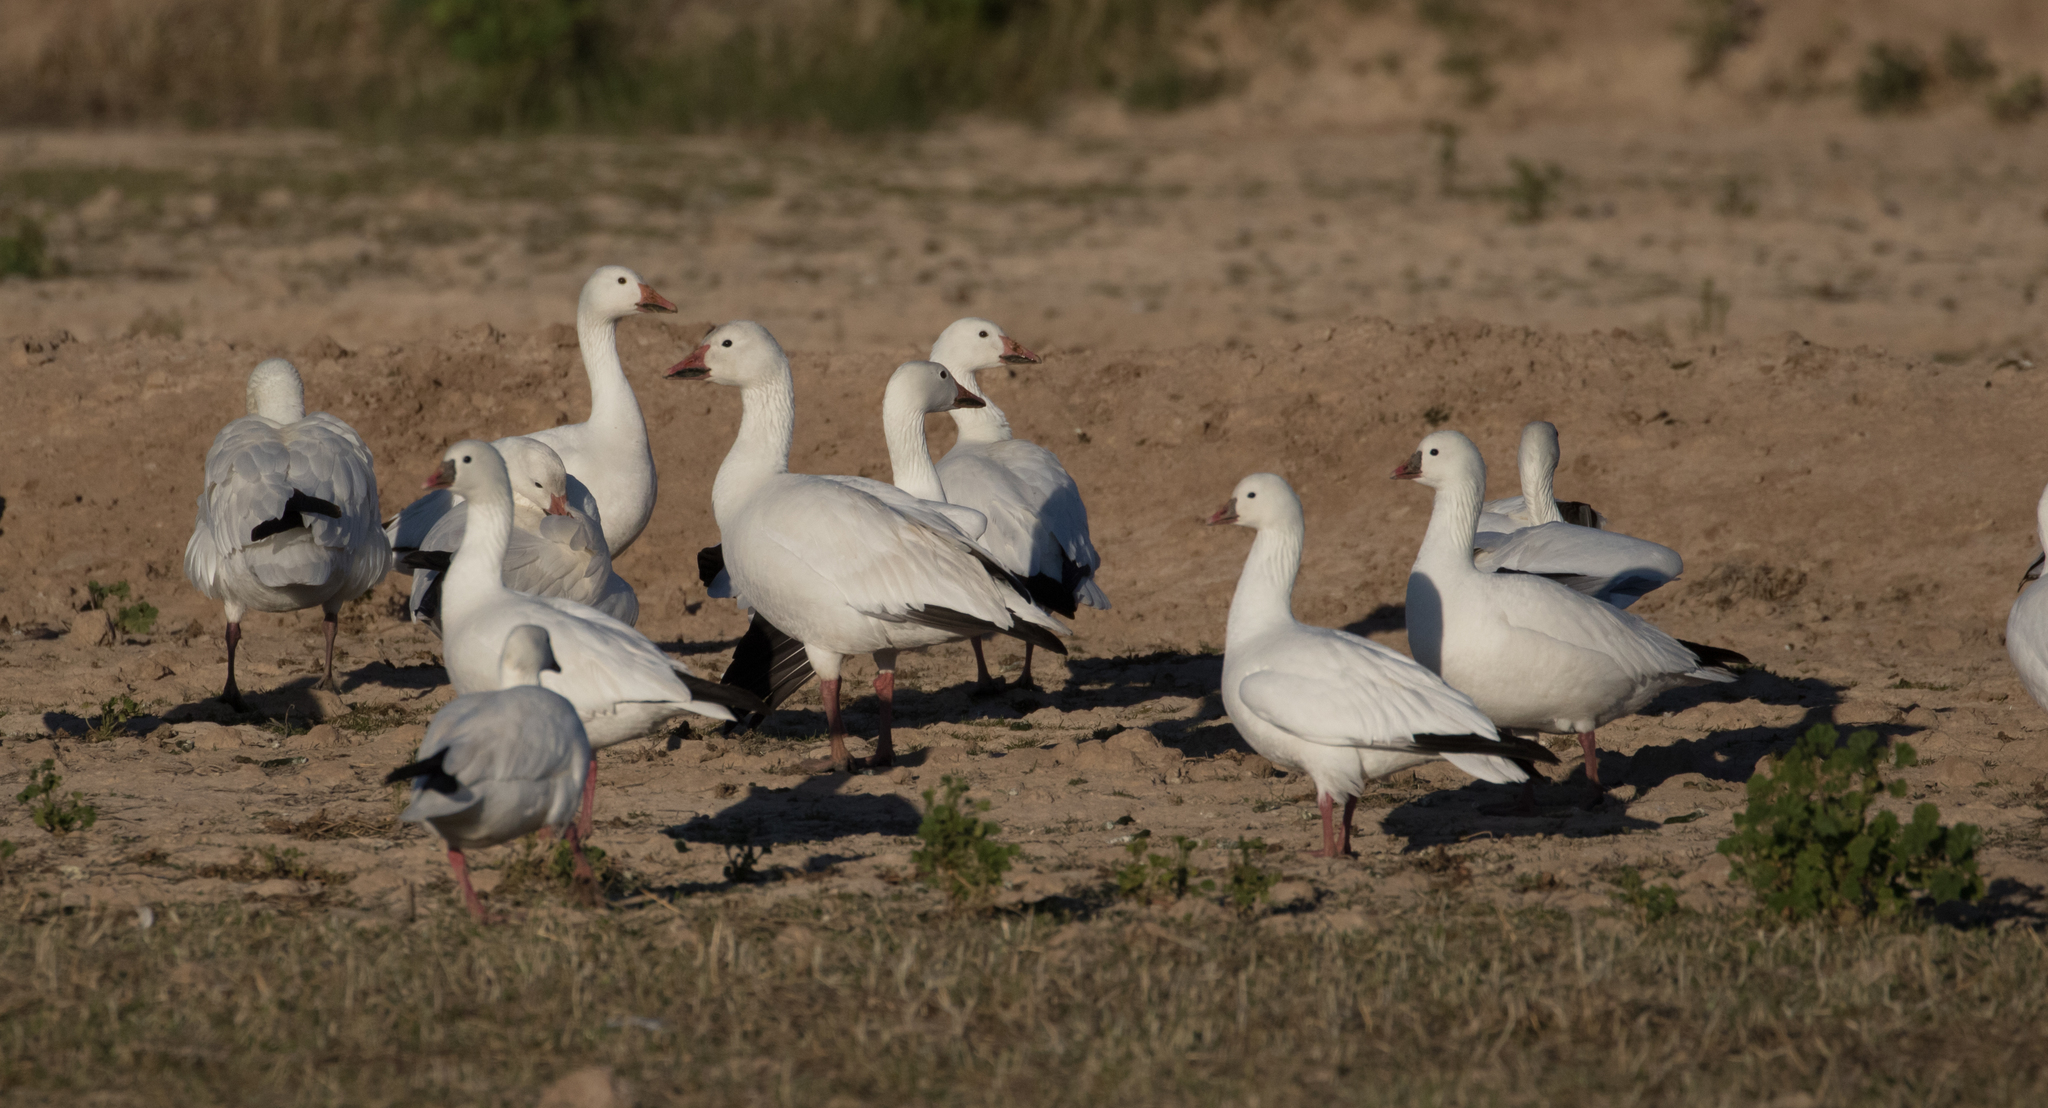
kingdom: Animalia
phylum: Chordata
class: Aves
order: Anseriformes
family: Anatidae
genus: Anser
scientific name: Anser rossii
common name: Ross's goose
